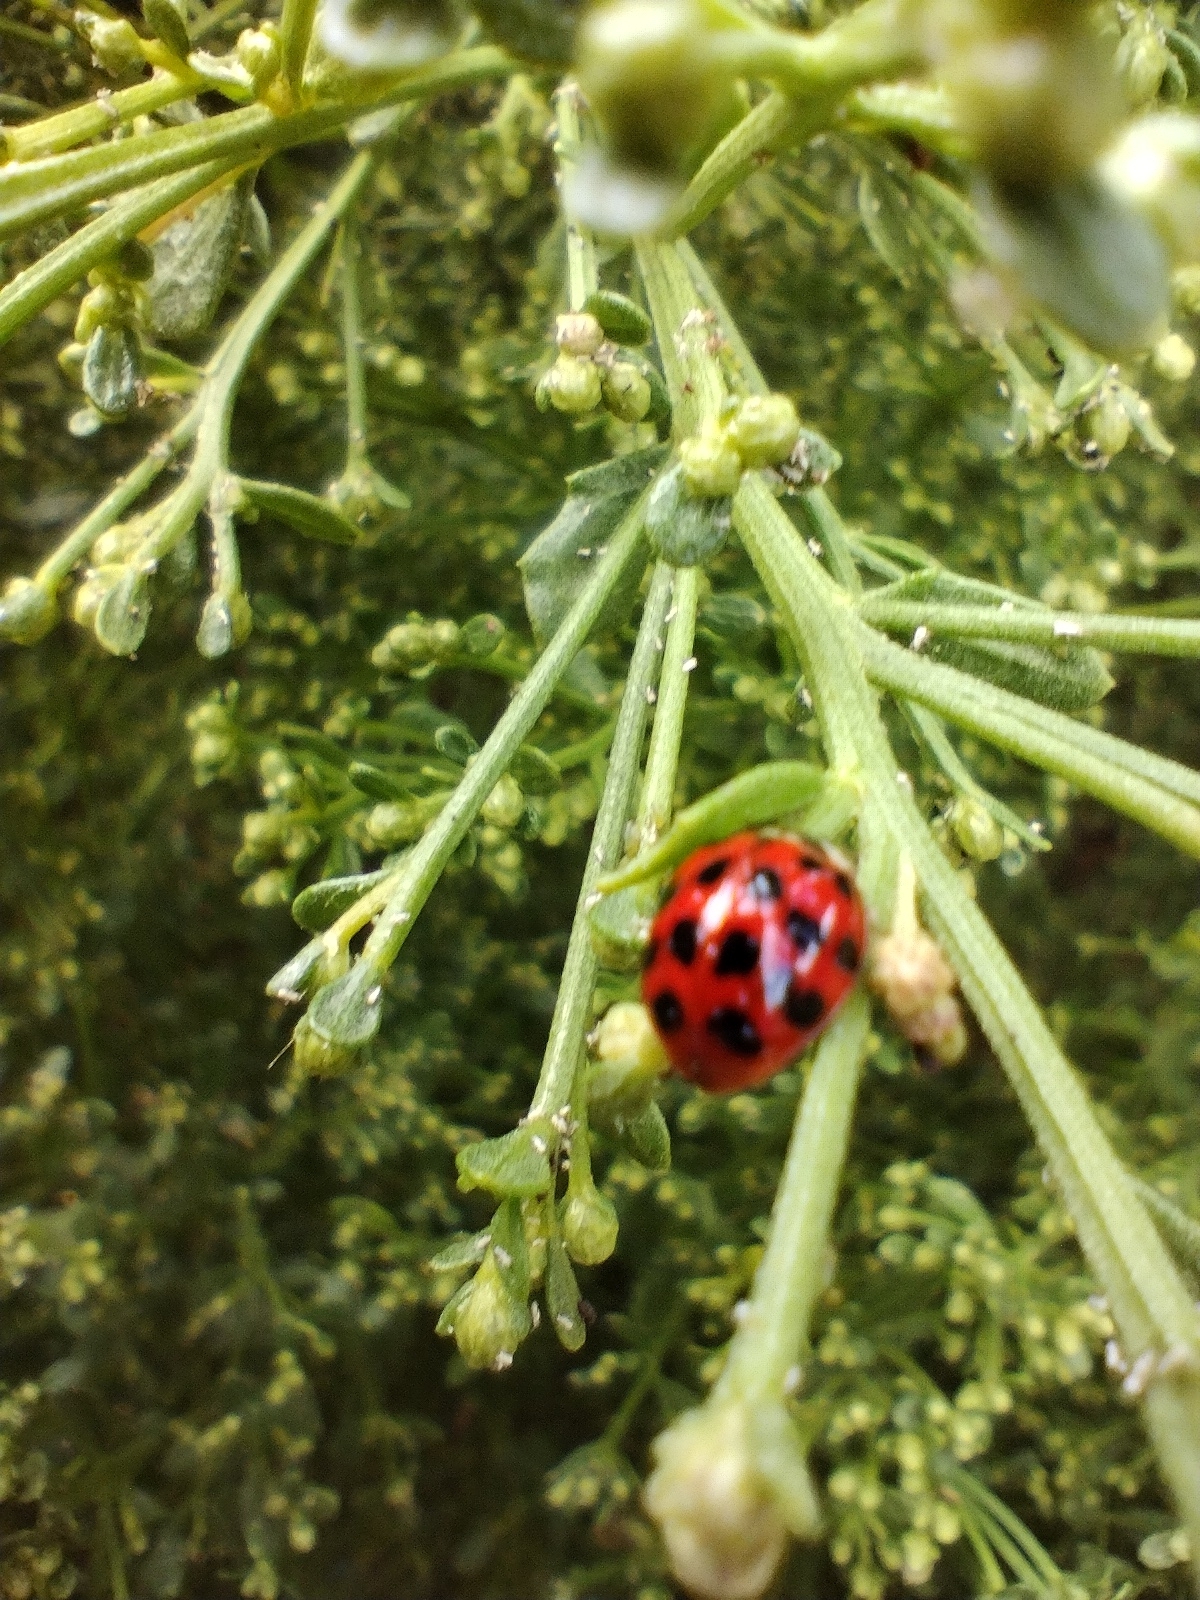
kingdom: Animalia
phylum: Arthropoda
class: Insecta
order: Coleoptera
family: Coccinellidae
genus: Harmonia
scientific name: Harmonia axyridis
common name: Harlequin ladybird
